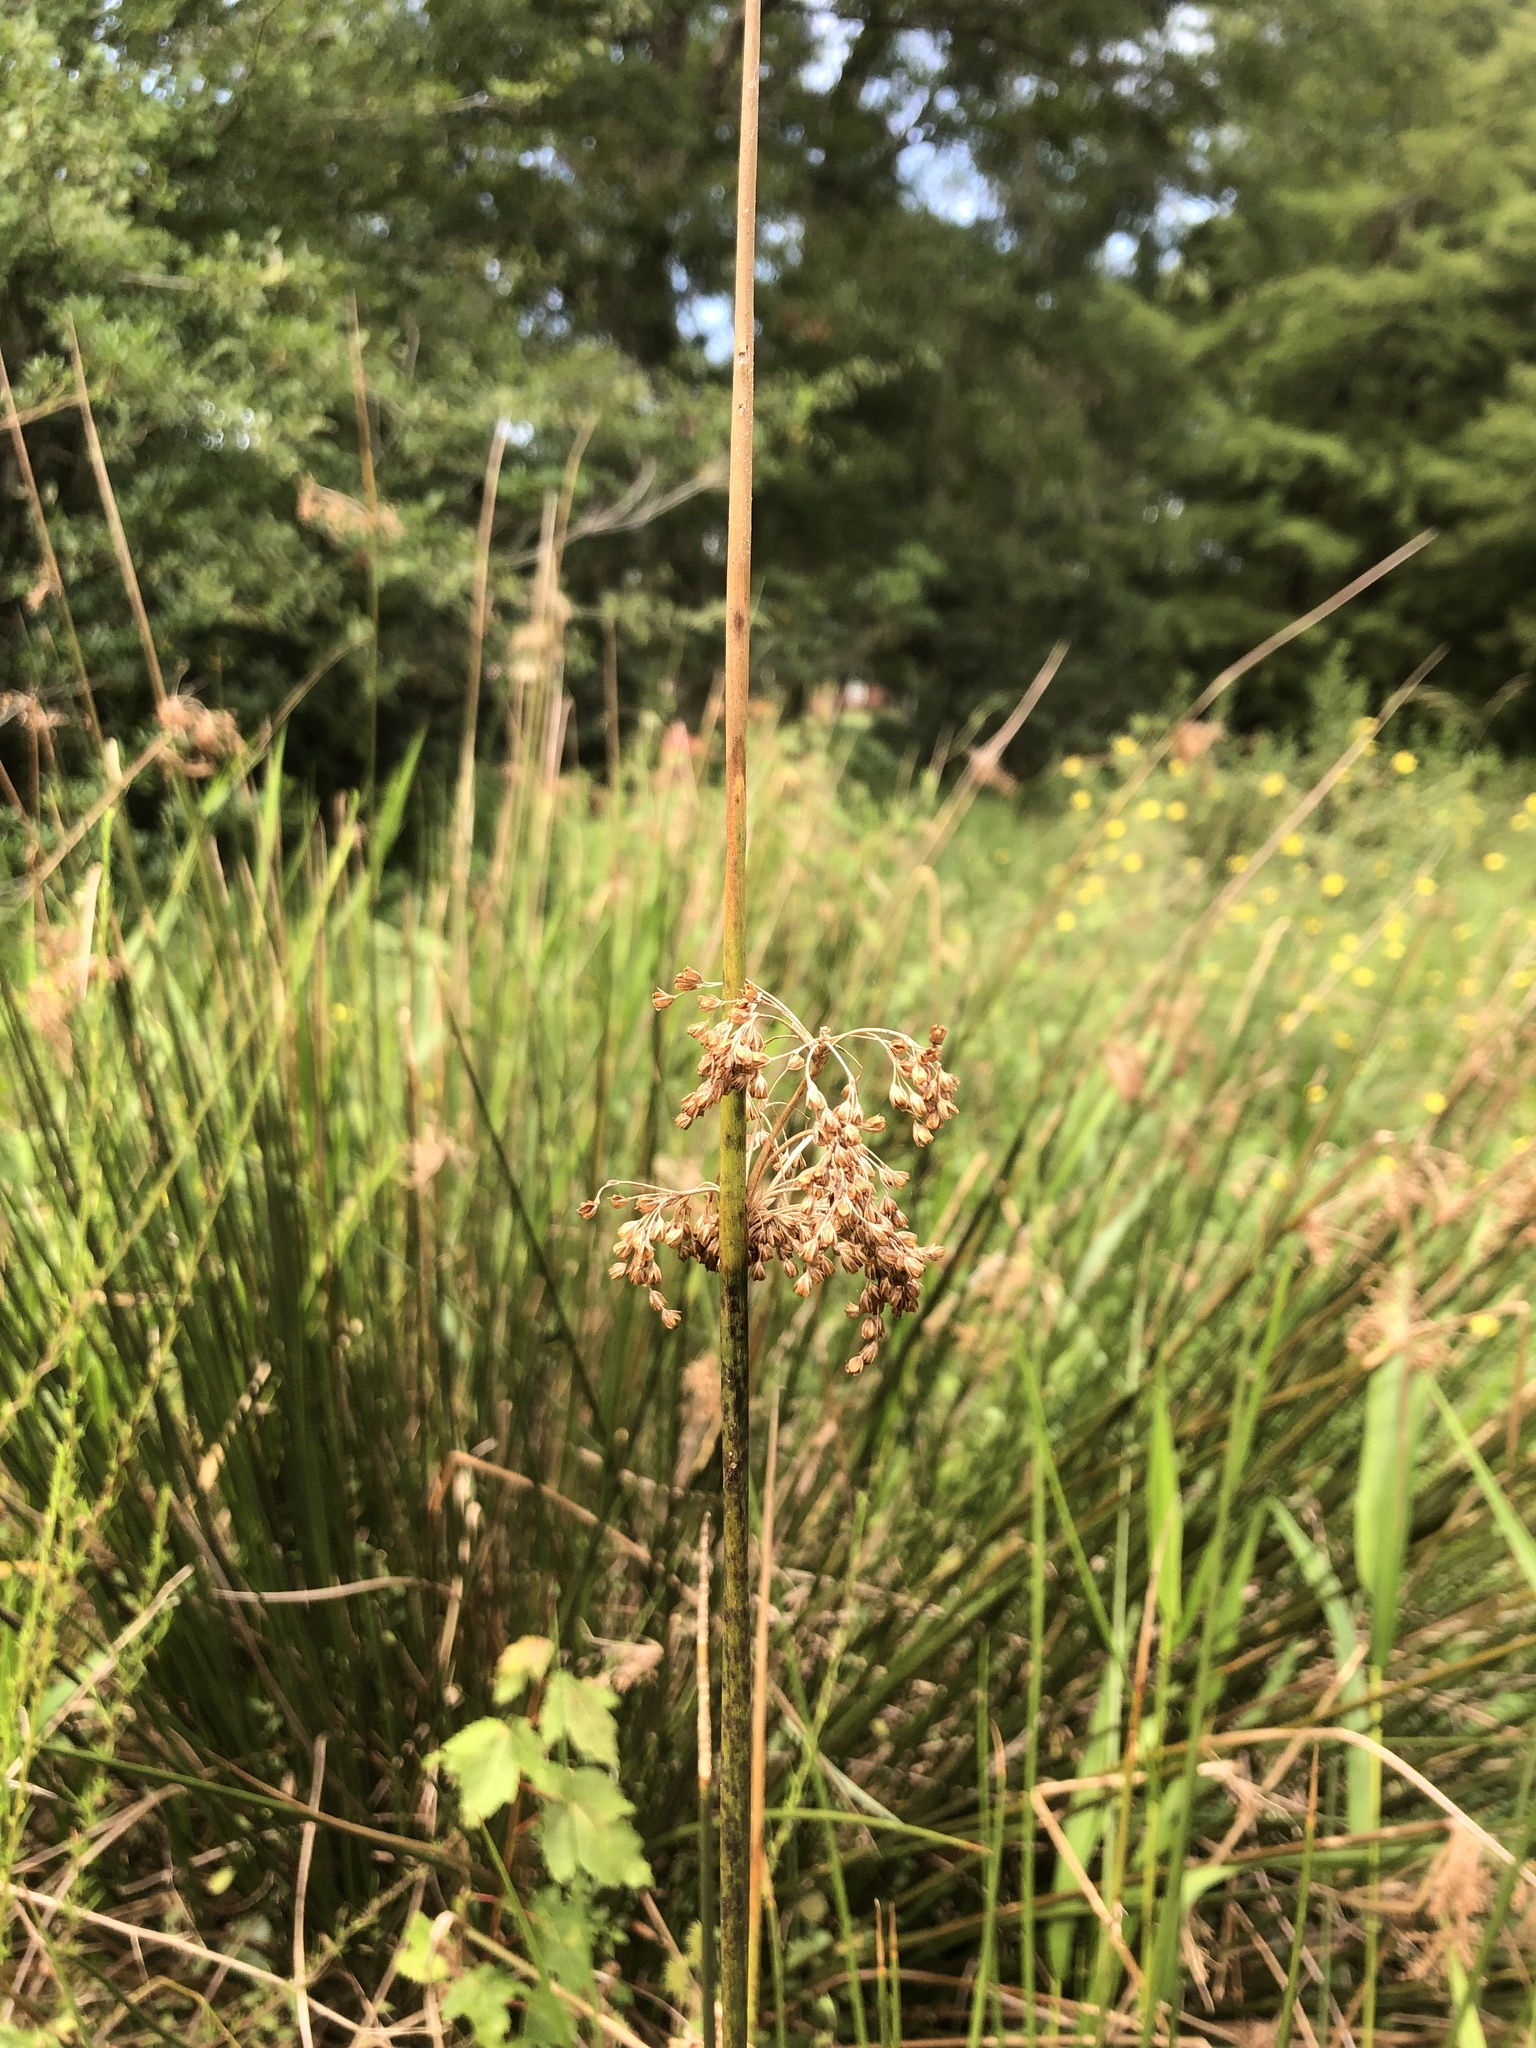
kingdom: Plantae
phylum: Tracheophyta
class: Liliopsida
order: Poales
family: Juncaceae
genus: Juncus
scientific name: Juncus effusus
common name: Soft rush
